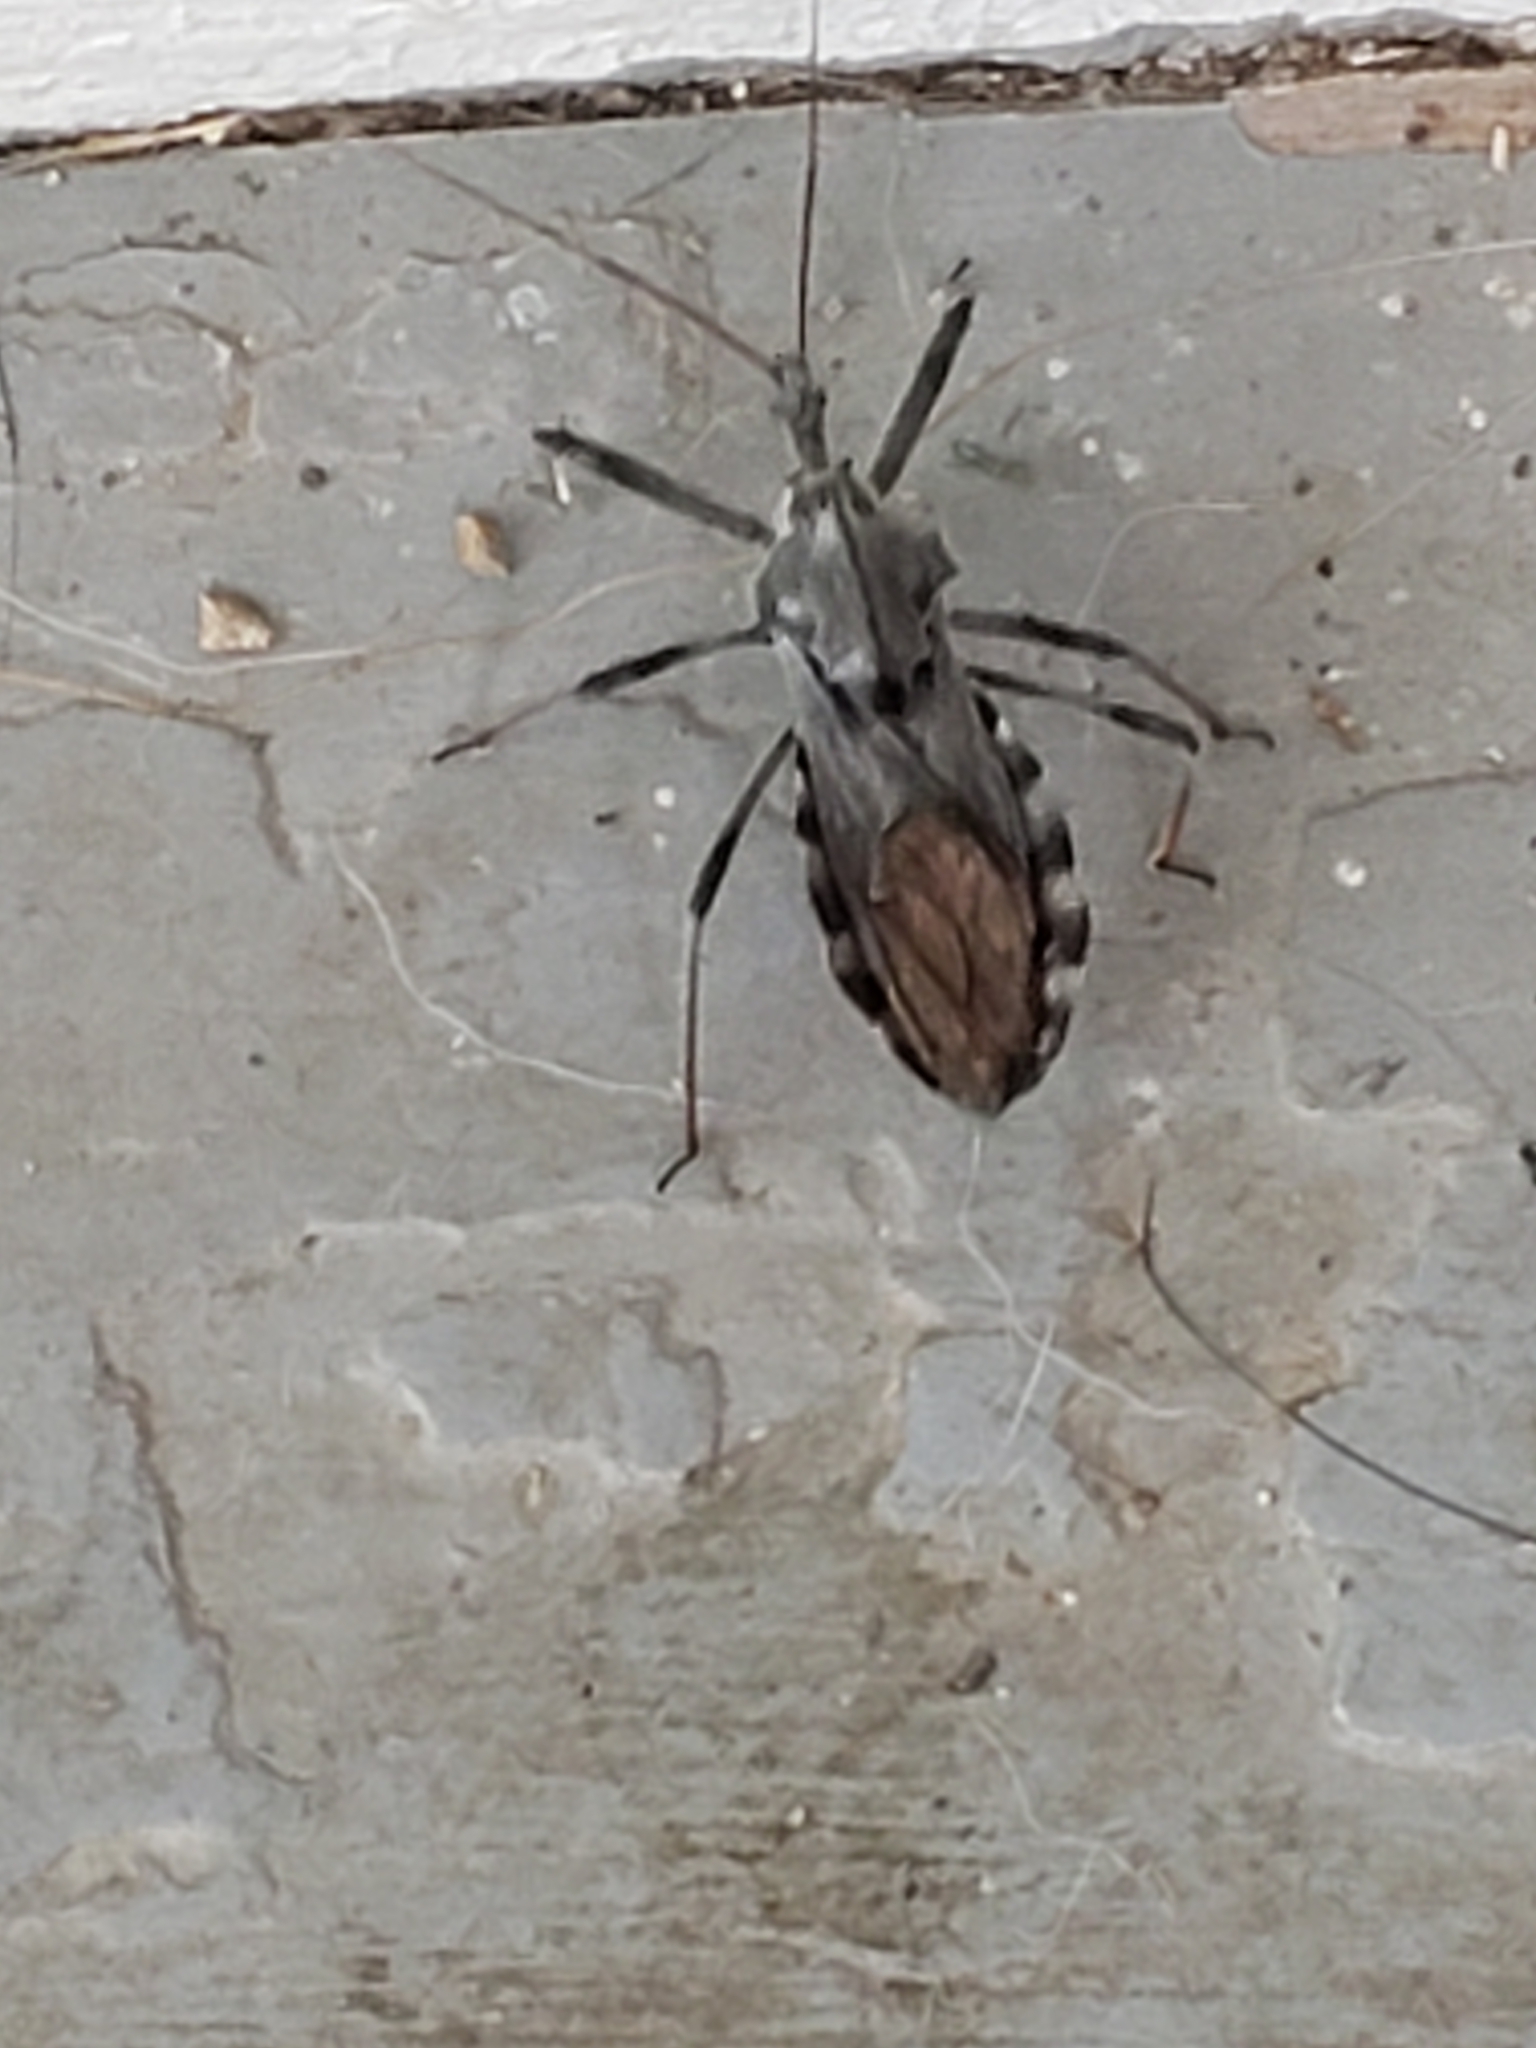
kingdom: Animalia
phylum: Arthropoda
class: Insecta
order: Hemiptera
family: Reduviidae
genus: Arilus
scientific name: Arilus cristatus
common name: North american wheel bug
